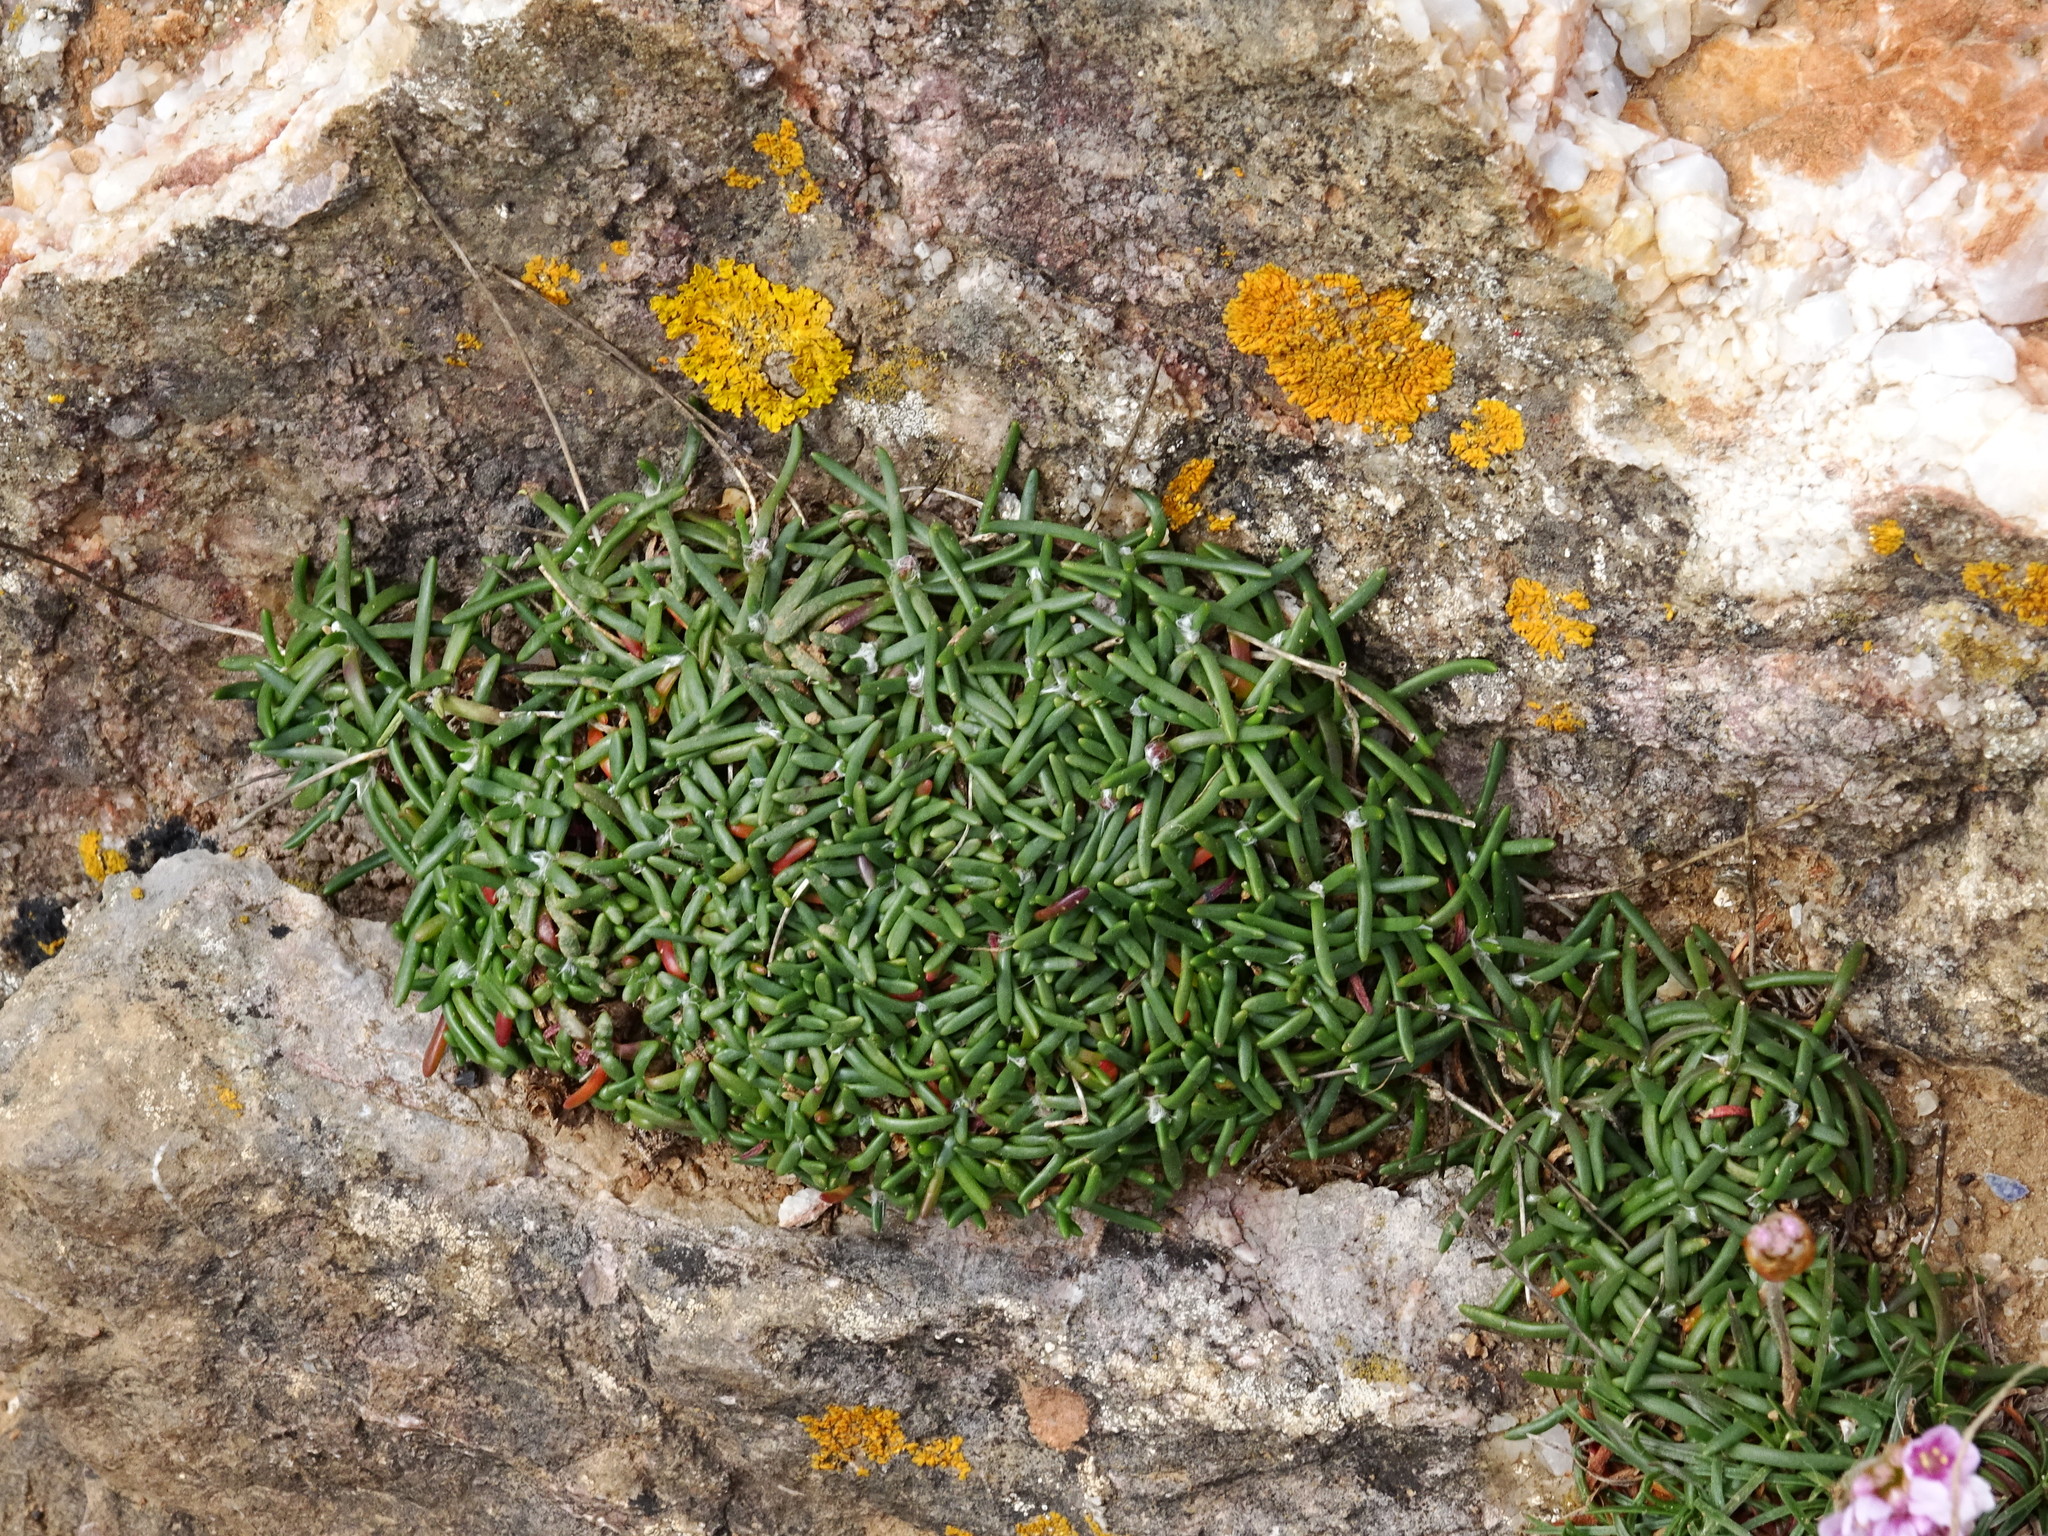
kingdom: Plantae
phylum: Tracheophyta
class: Magnoliopsida
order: Caryophyllales
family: Plumbaginaceae
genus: Armeria
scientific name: Armeria maritima
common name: Thrift
